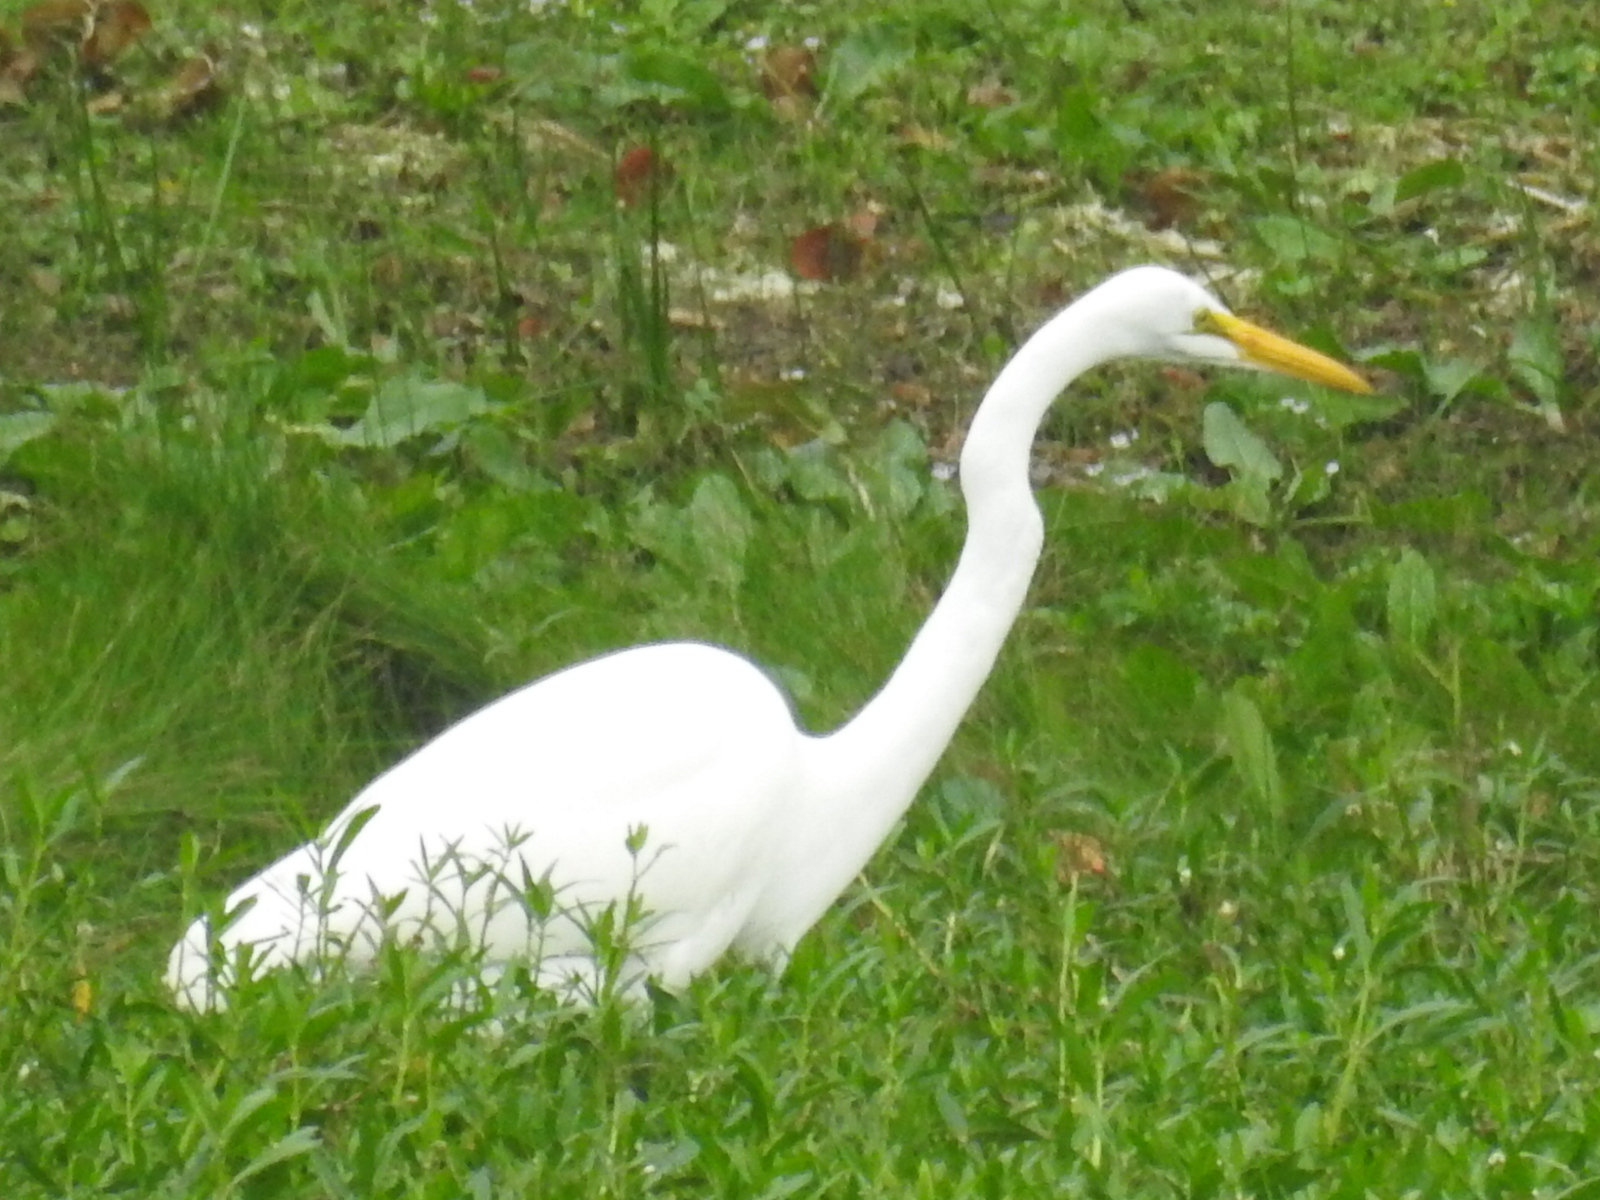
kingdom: Animalia
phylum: Chordata
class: Aves
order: Pelecaniformes
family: Ardeidae
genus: Ardea
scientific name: Ardea alba
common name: Great egret
